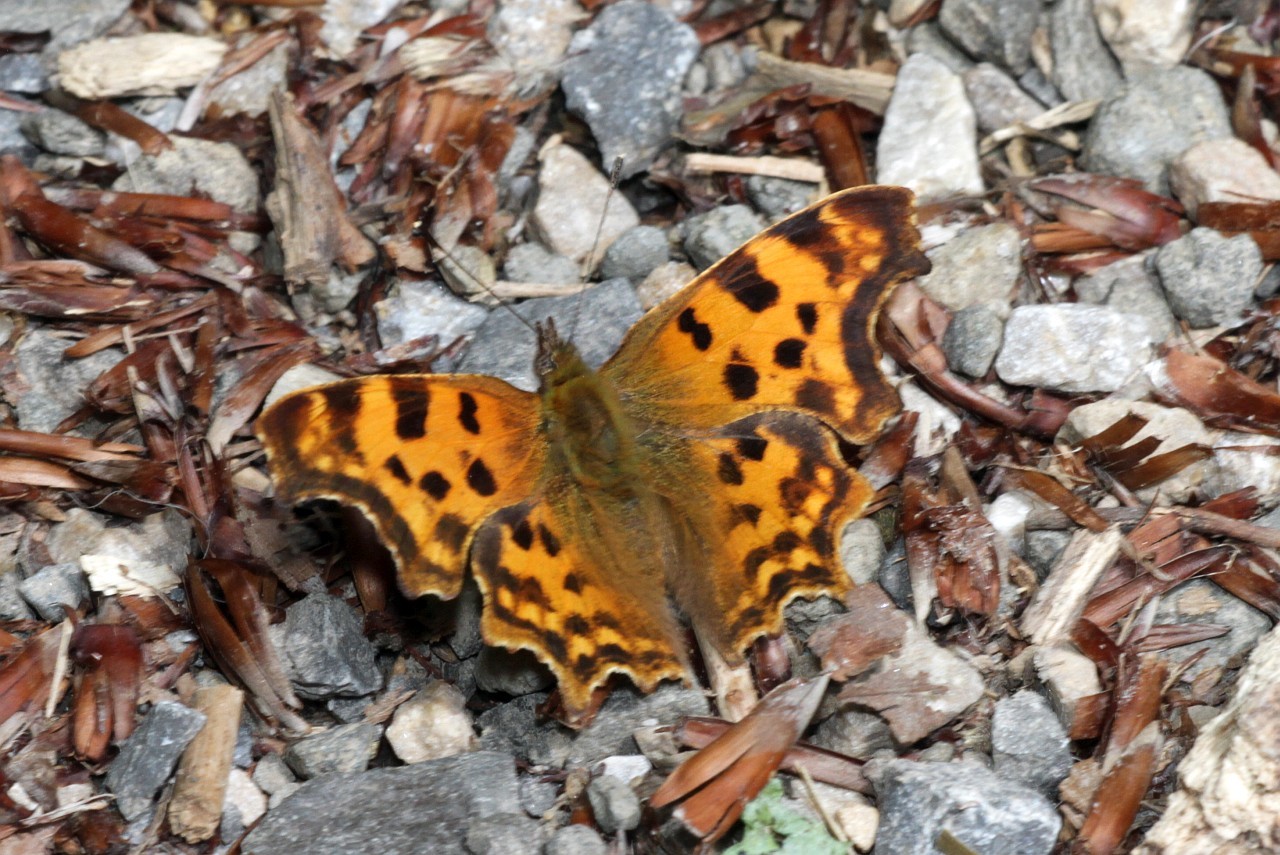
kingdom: Animalia
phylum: Arthropoda
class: Insecta
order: Lepidoptera
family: Nymphalidae
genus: Polygonia
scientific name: Polygonia c-album
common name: Comma
